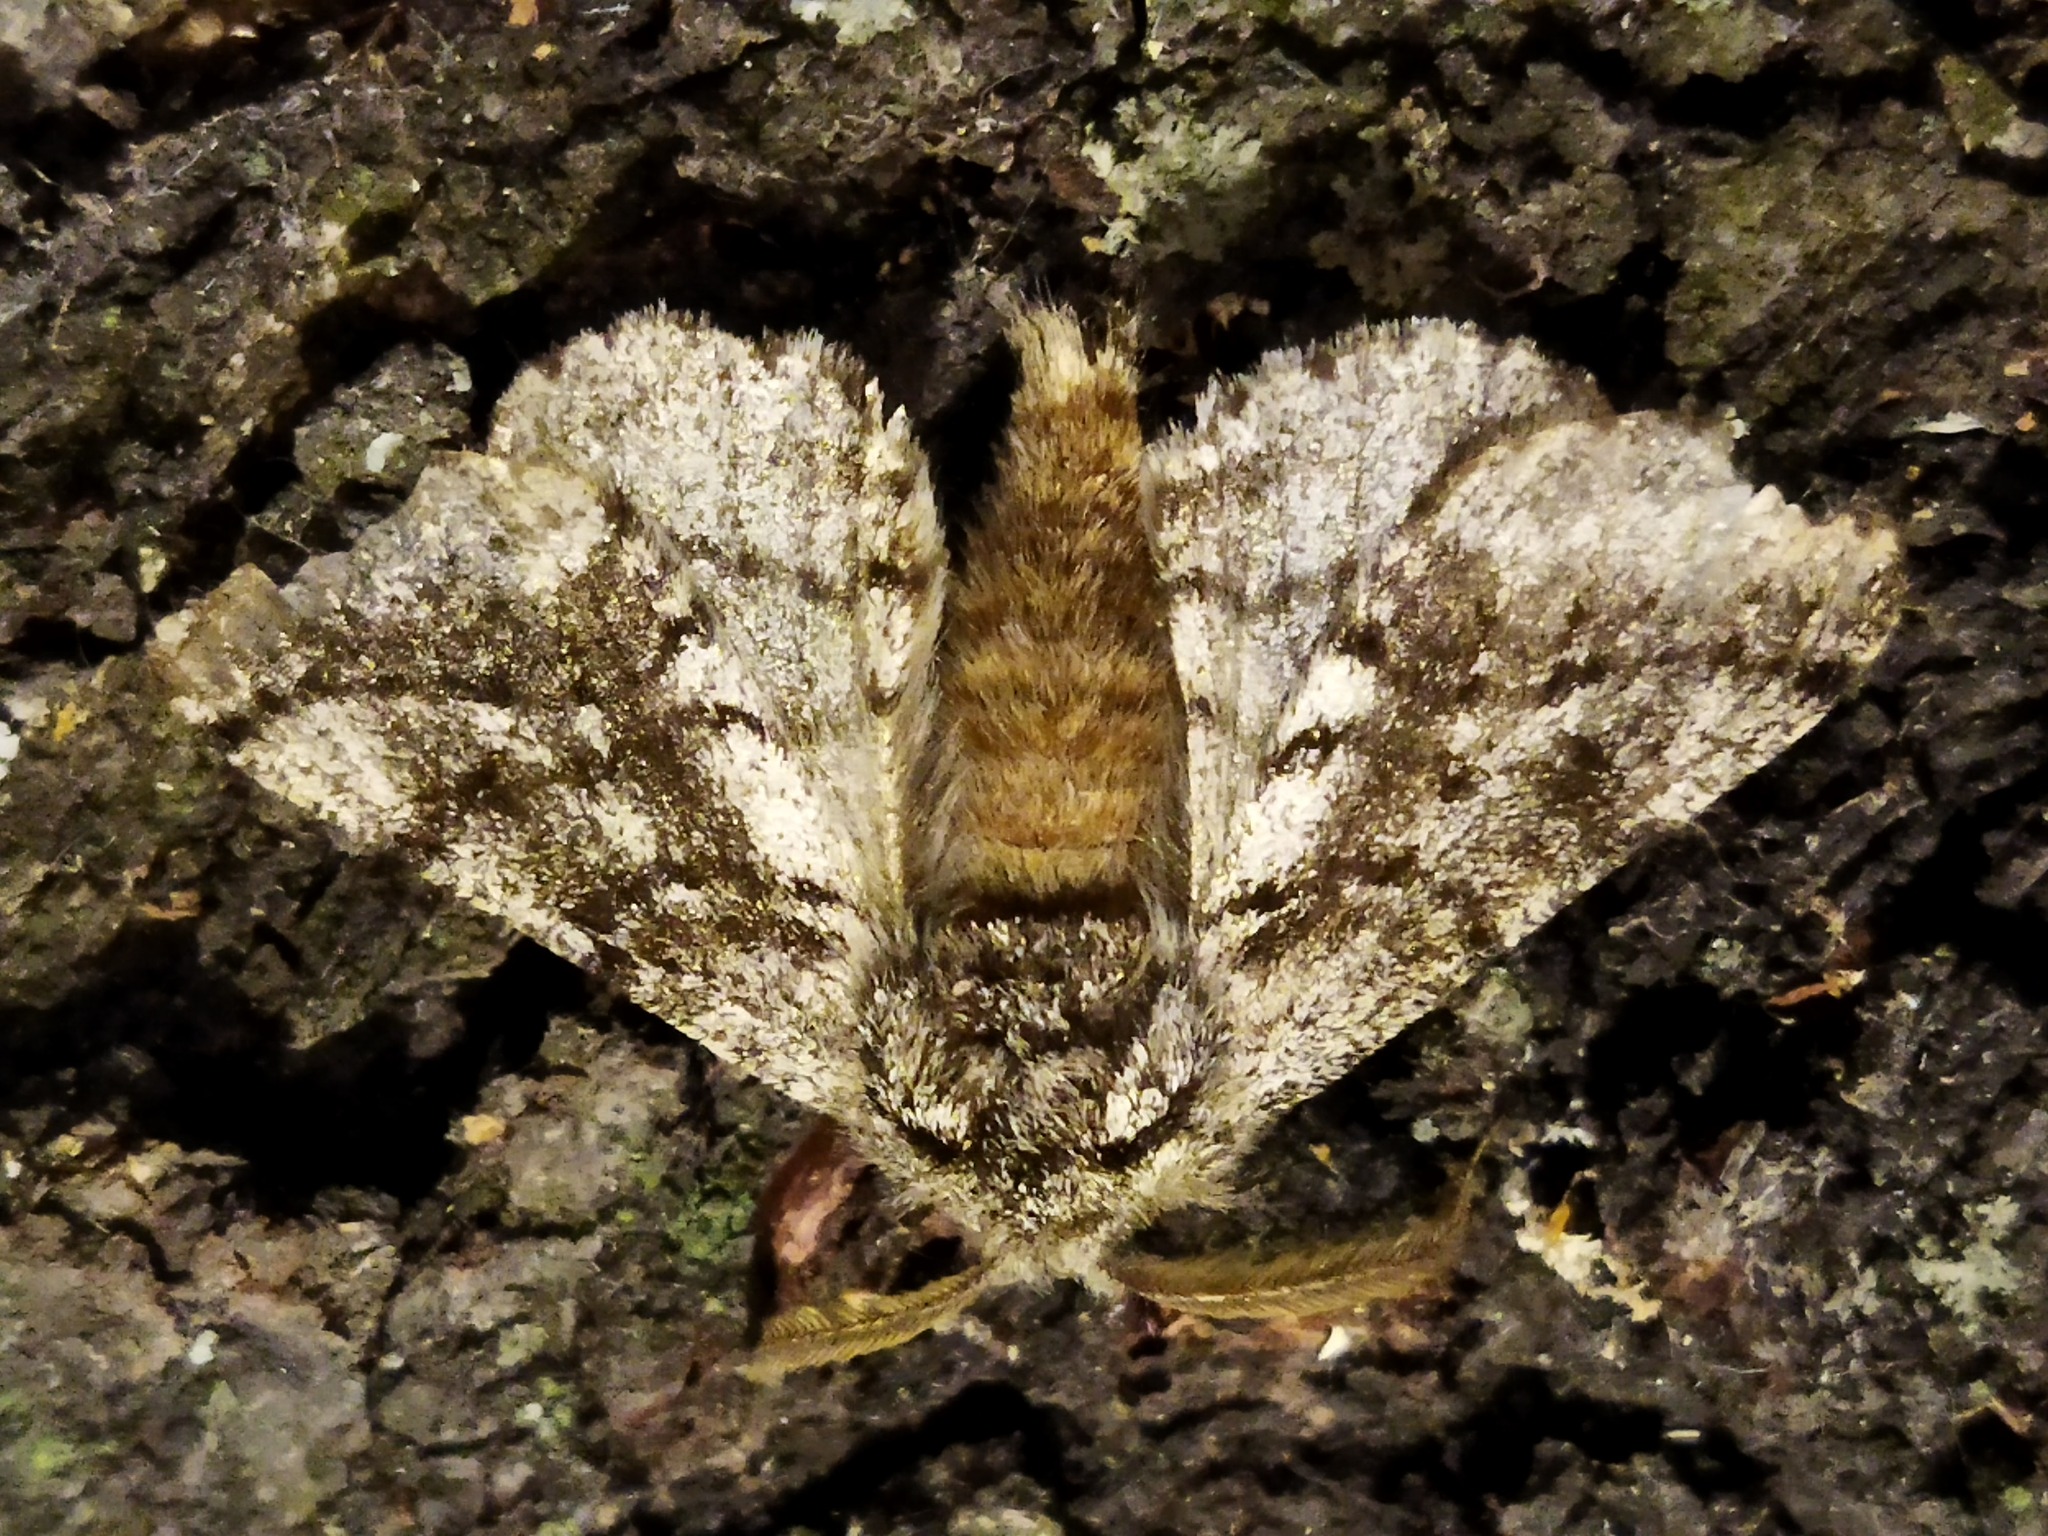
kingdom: Animalia
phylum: Arthropoda
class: Insecta
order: Lepidoptera
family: Geometridae
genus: Lycia
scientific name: Lycia hirtaria
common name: Brindled beauty
